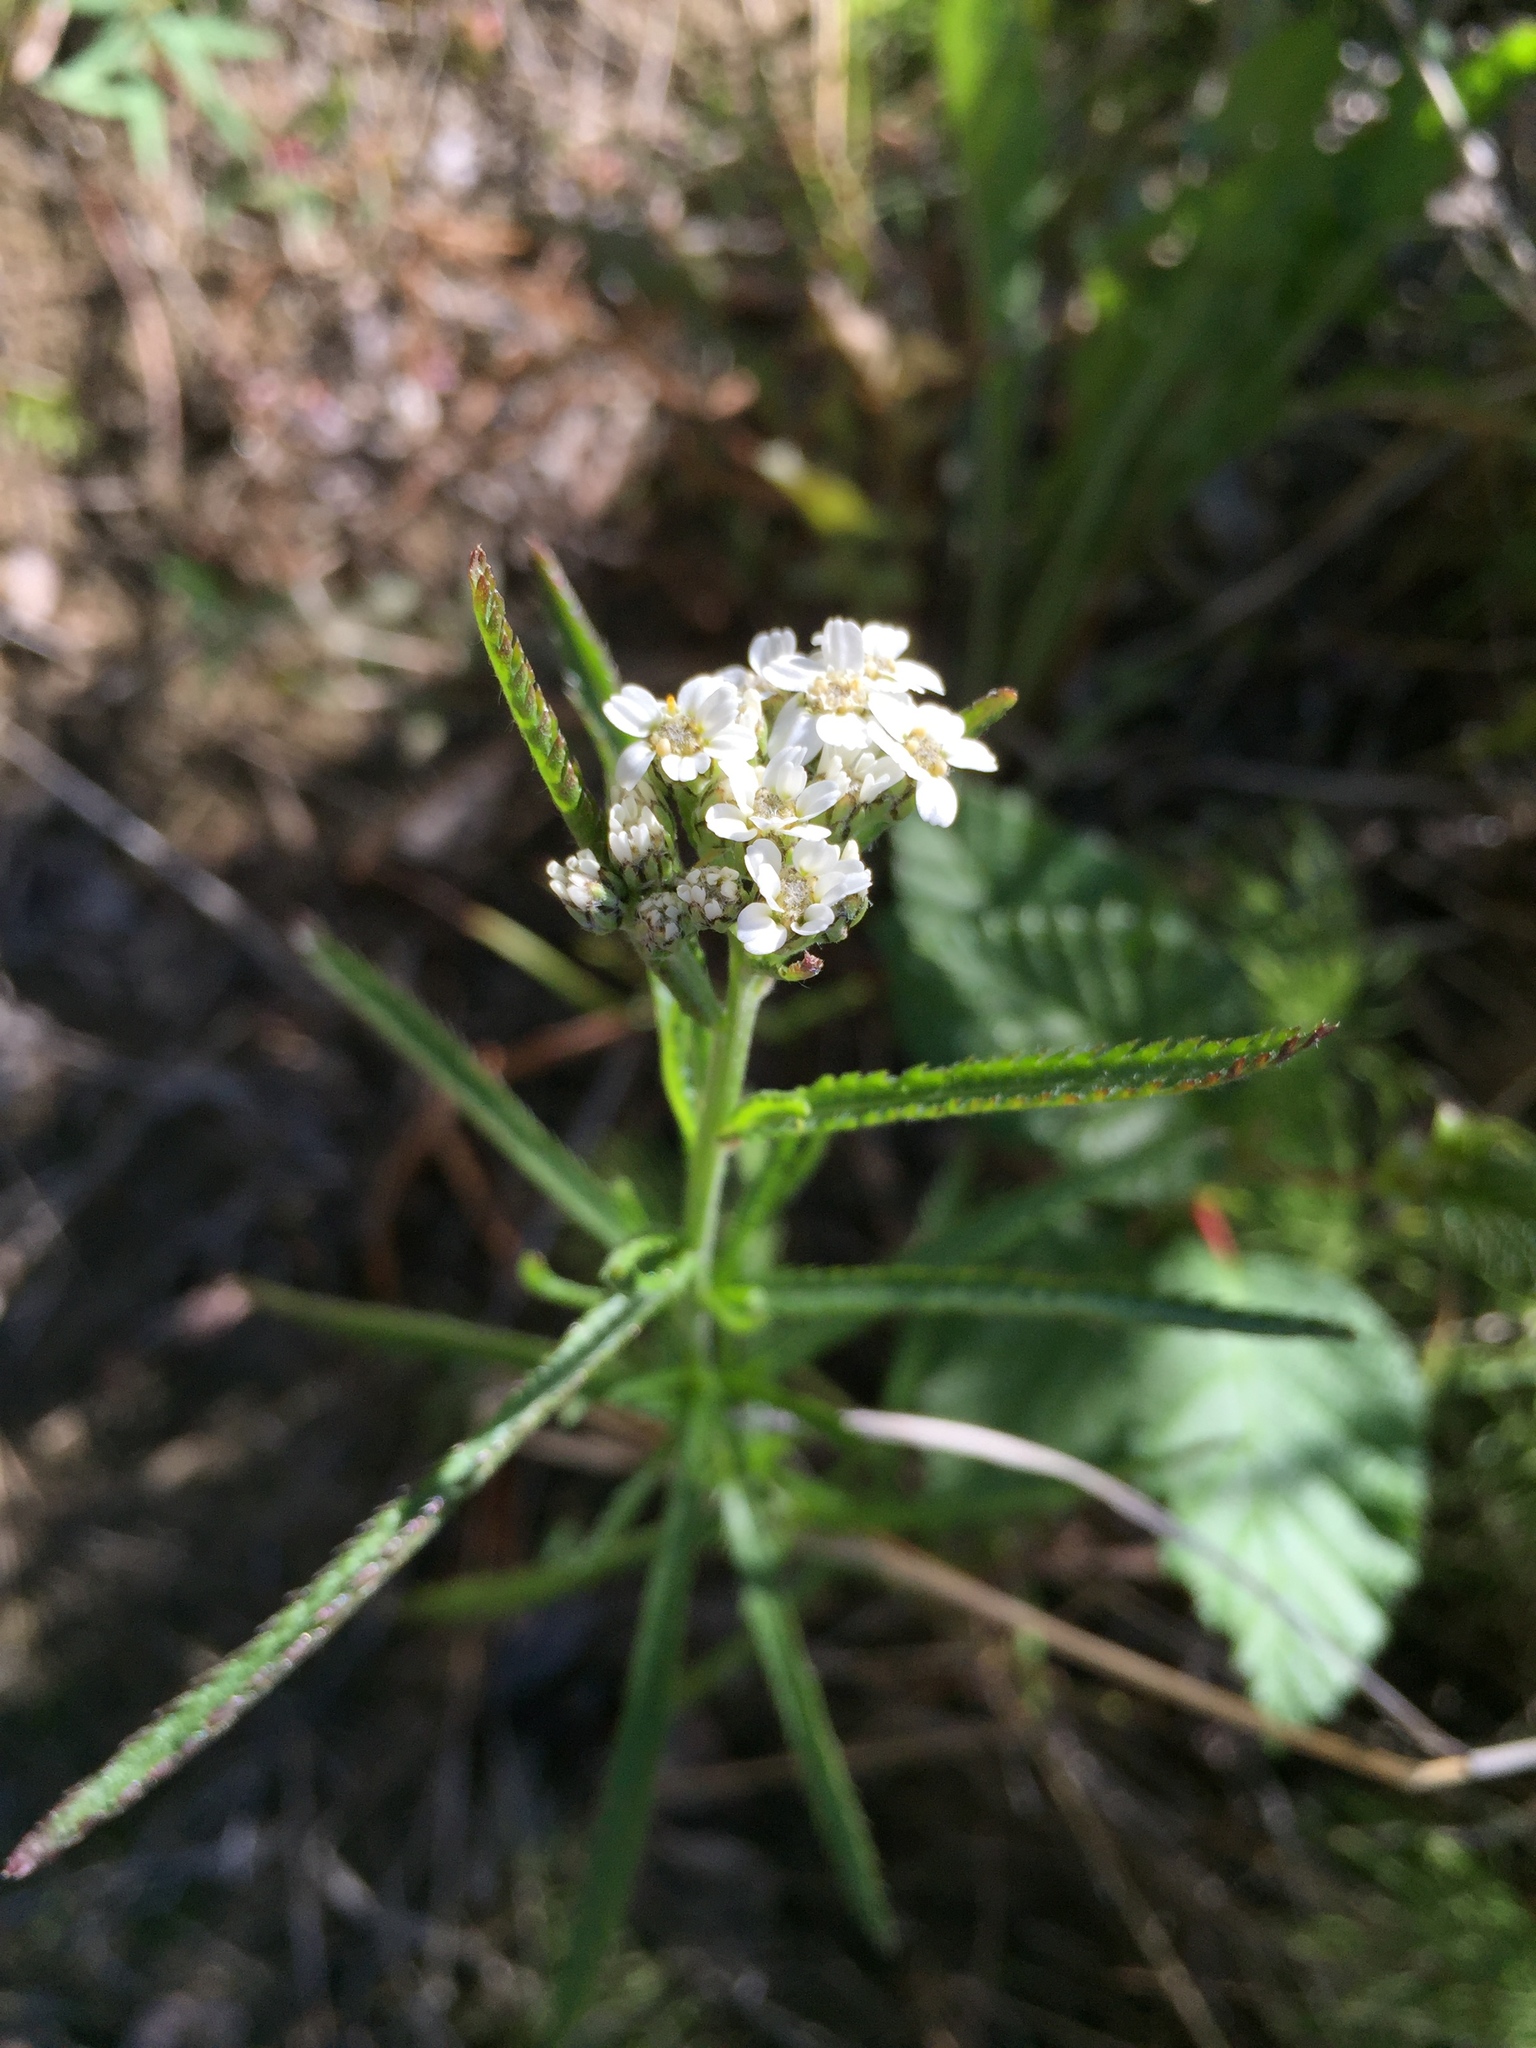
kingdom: Plantae
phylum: Tracheophyta
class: Magnoliopsida
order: Asterales
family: Asteraceae
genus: Achillea
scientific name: Achillea alpina
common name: Siberian yarrow
